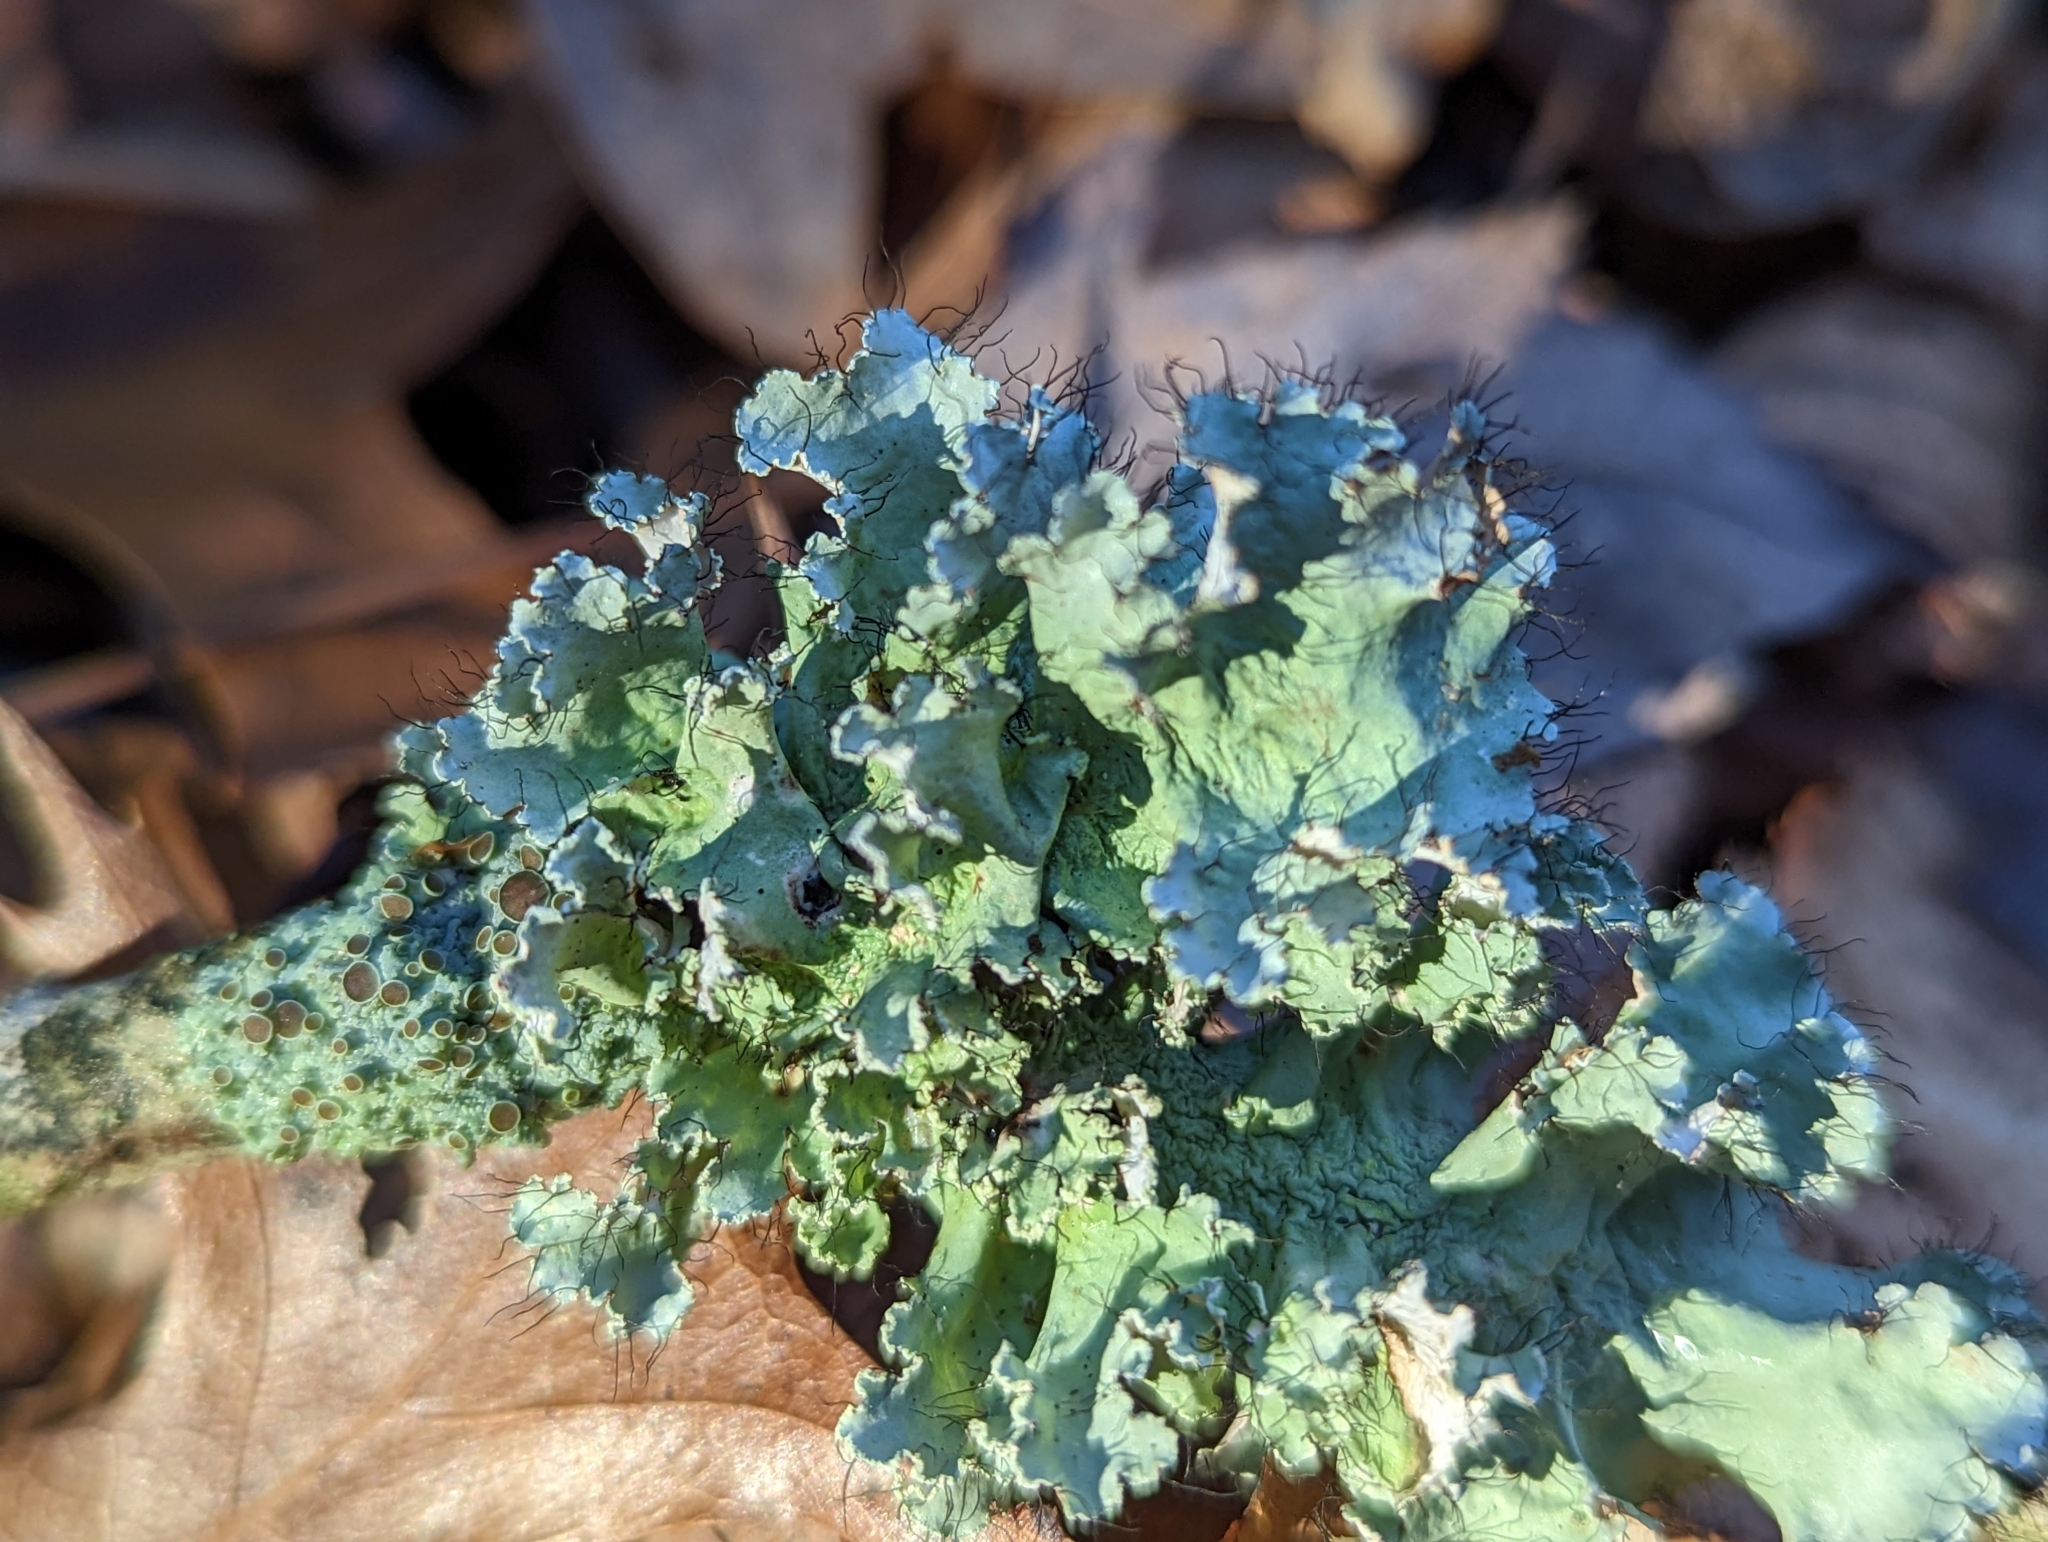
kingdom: Fungi
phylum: Ascomycota
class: Lecanoromycetes
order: Lecanorales
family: Parmeliaceae
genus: Parmotrema
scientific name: Parmotrema hypotropum
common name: Powdered ruffle lichen
